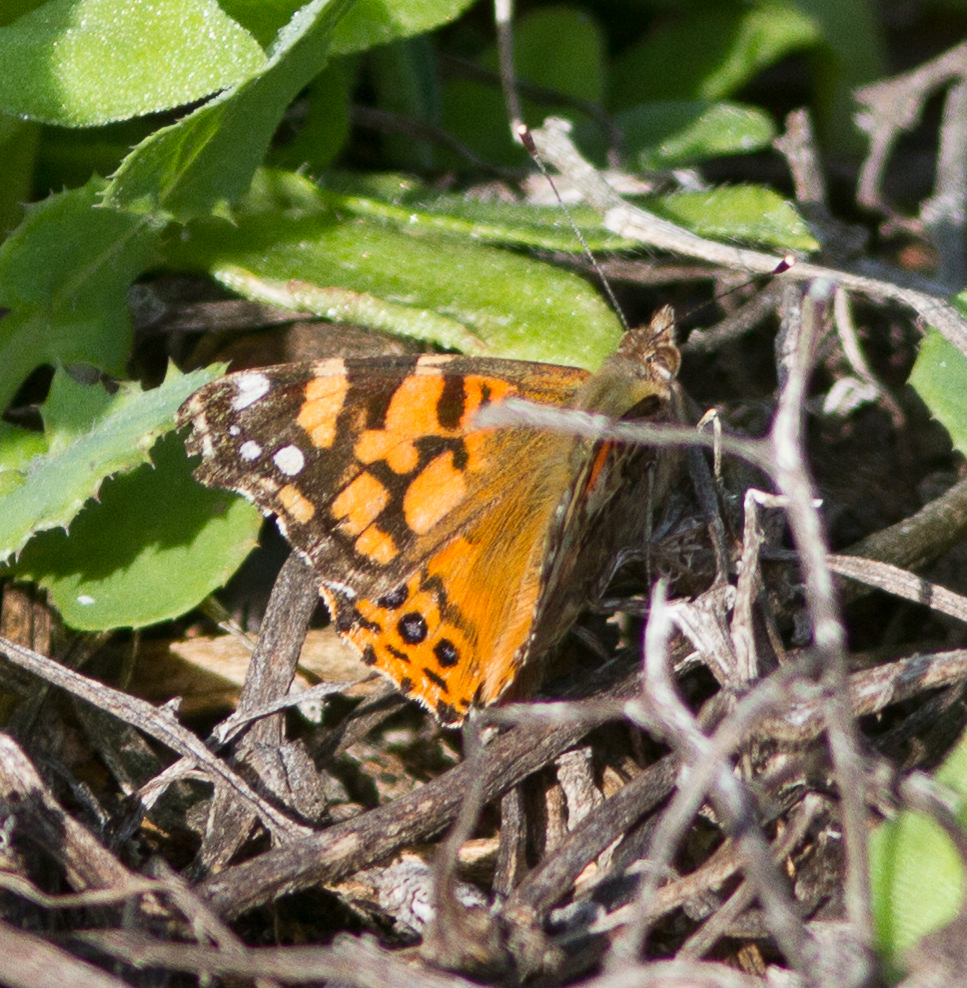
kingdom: Animalia
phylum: Arthropoda
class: Insecta
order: Lepidoptera
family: Nymphalidae
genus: Vanessa
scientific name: Vanessa annabella
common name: West coast lady
